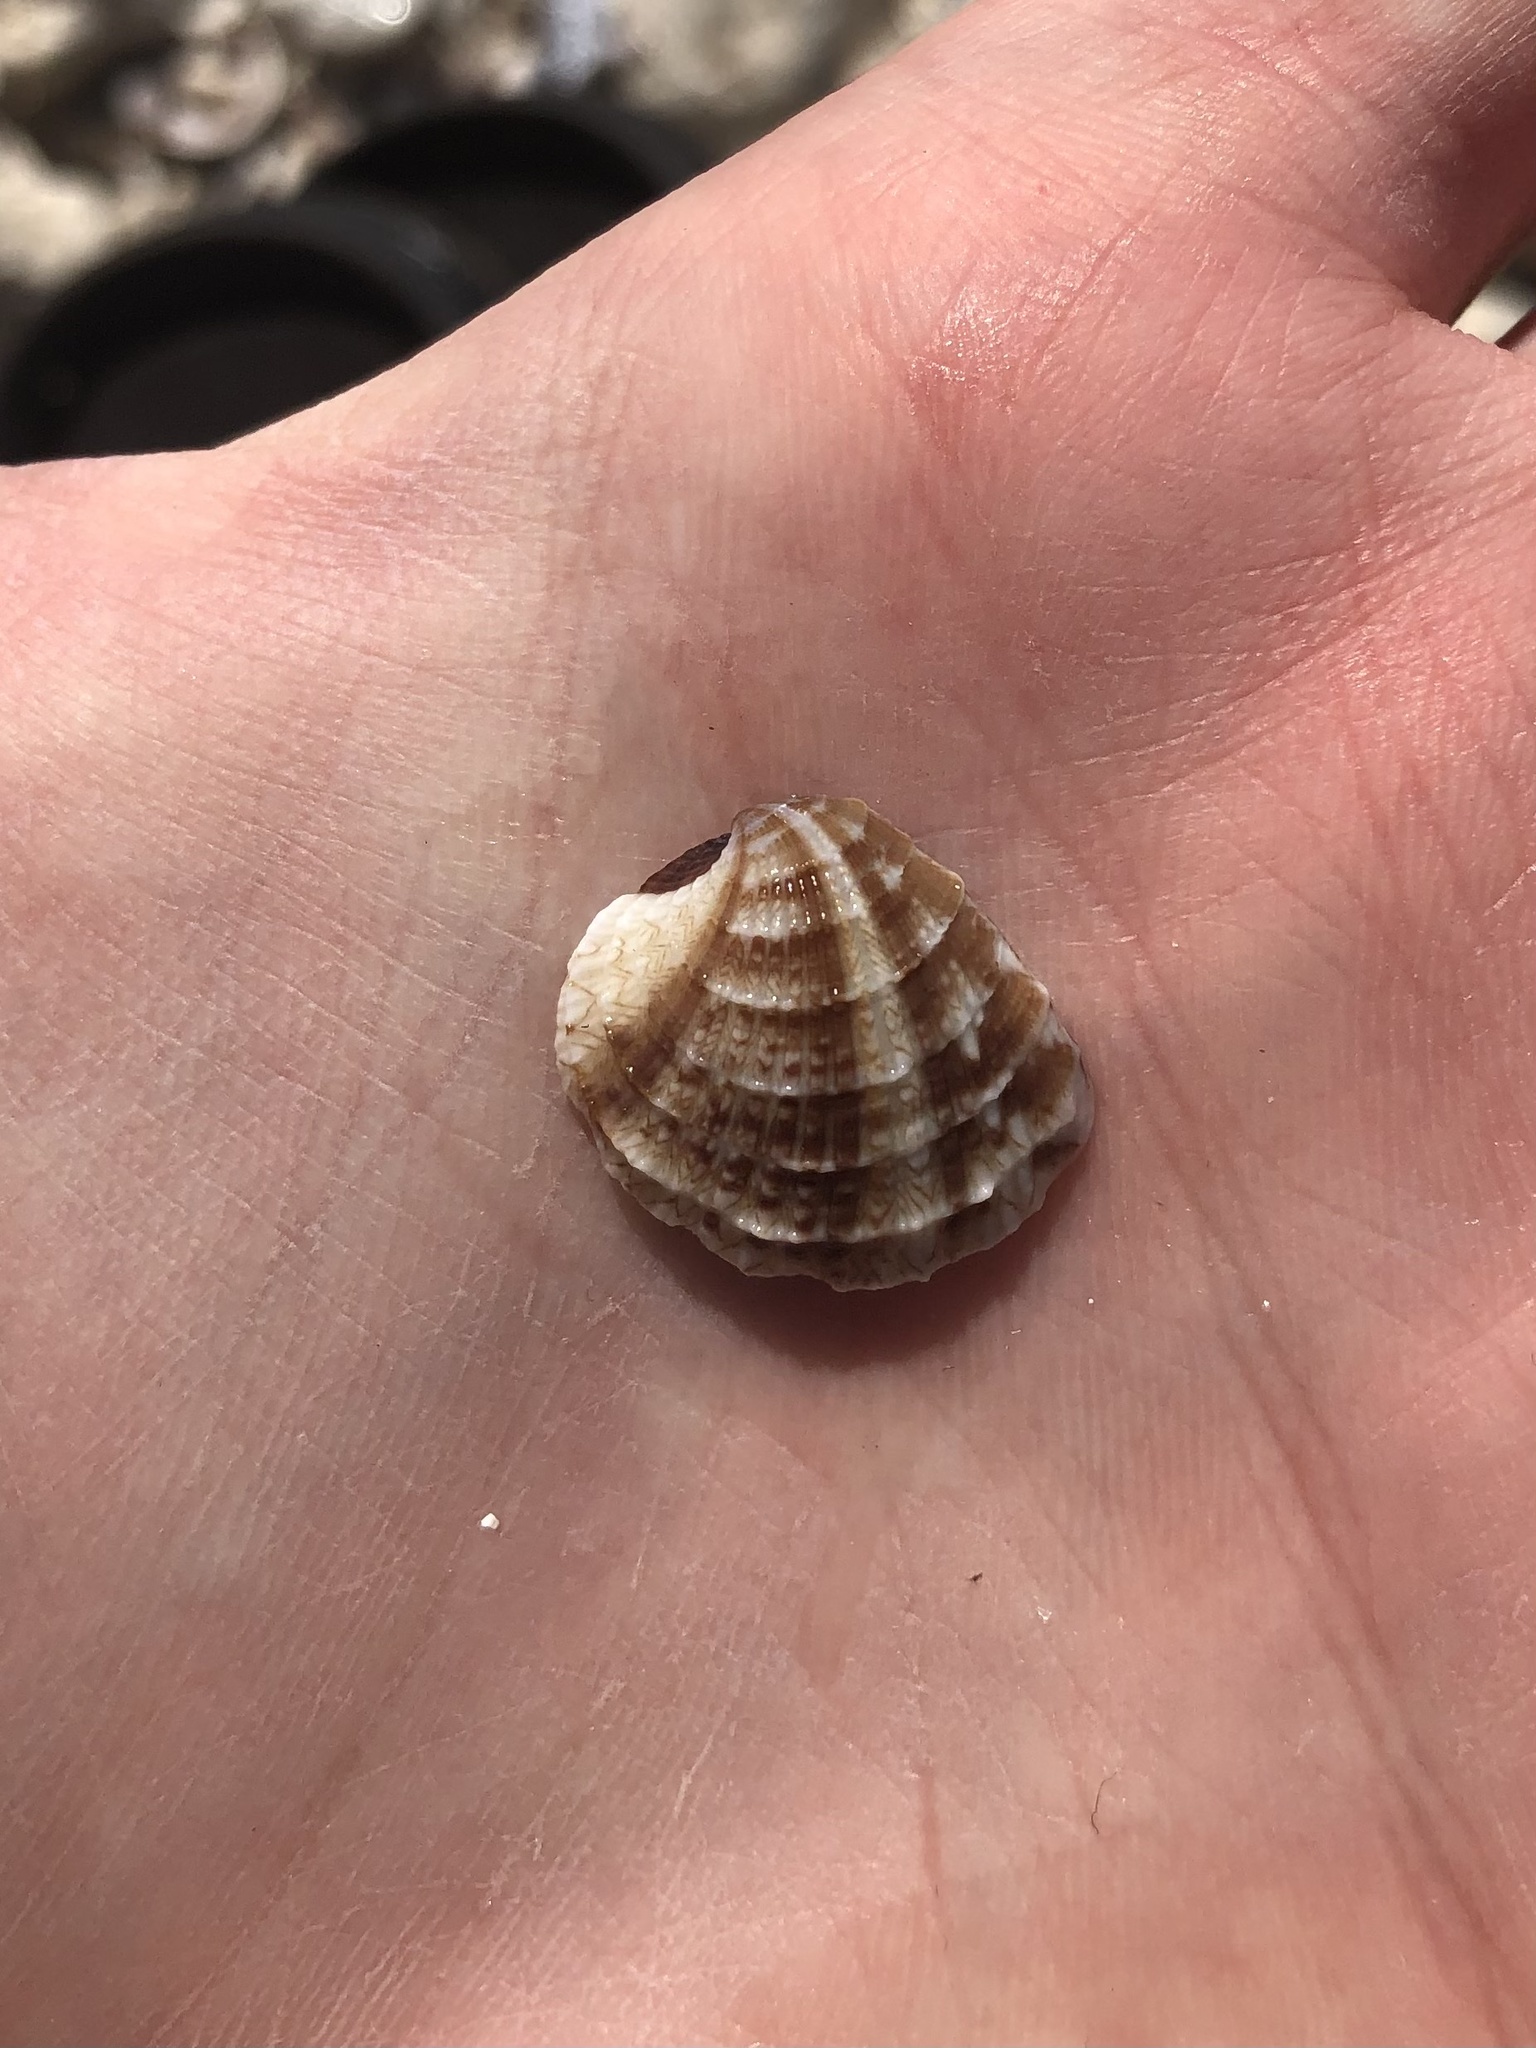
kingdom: Animalia
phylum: Mollusca
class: Bivalvia
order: Venerida
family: Veneridae
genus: Chione
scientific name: Chione elevata
